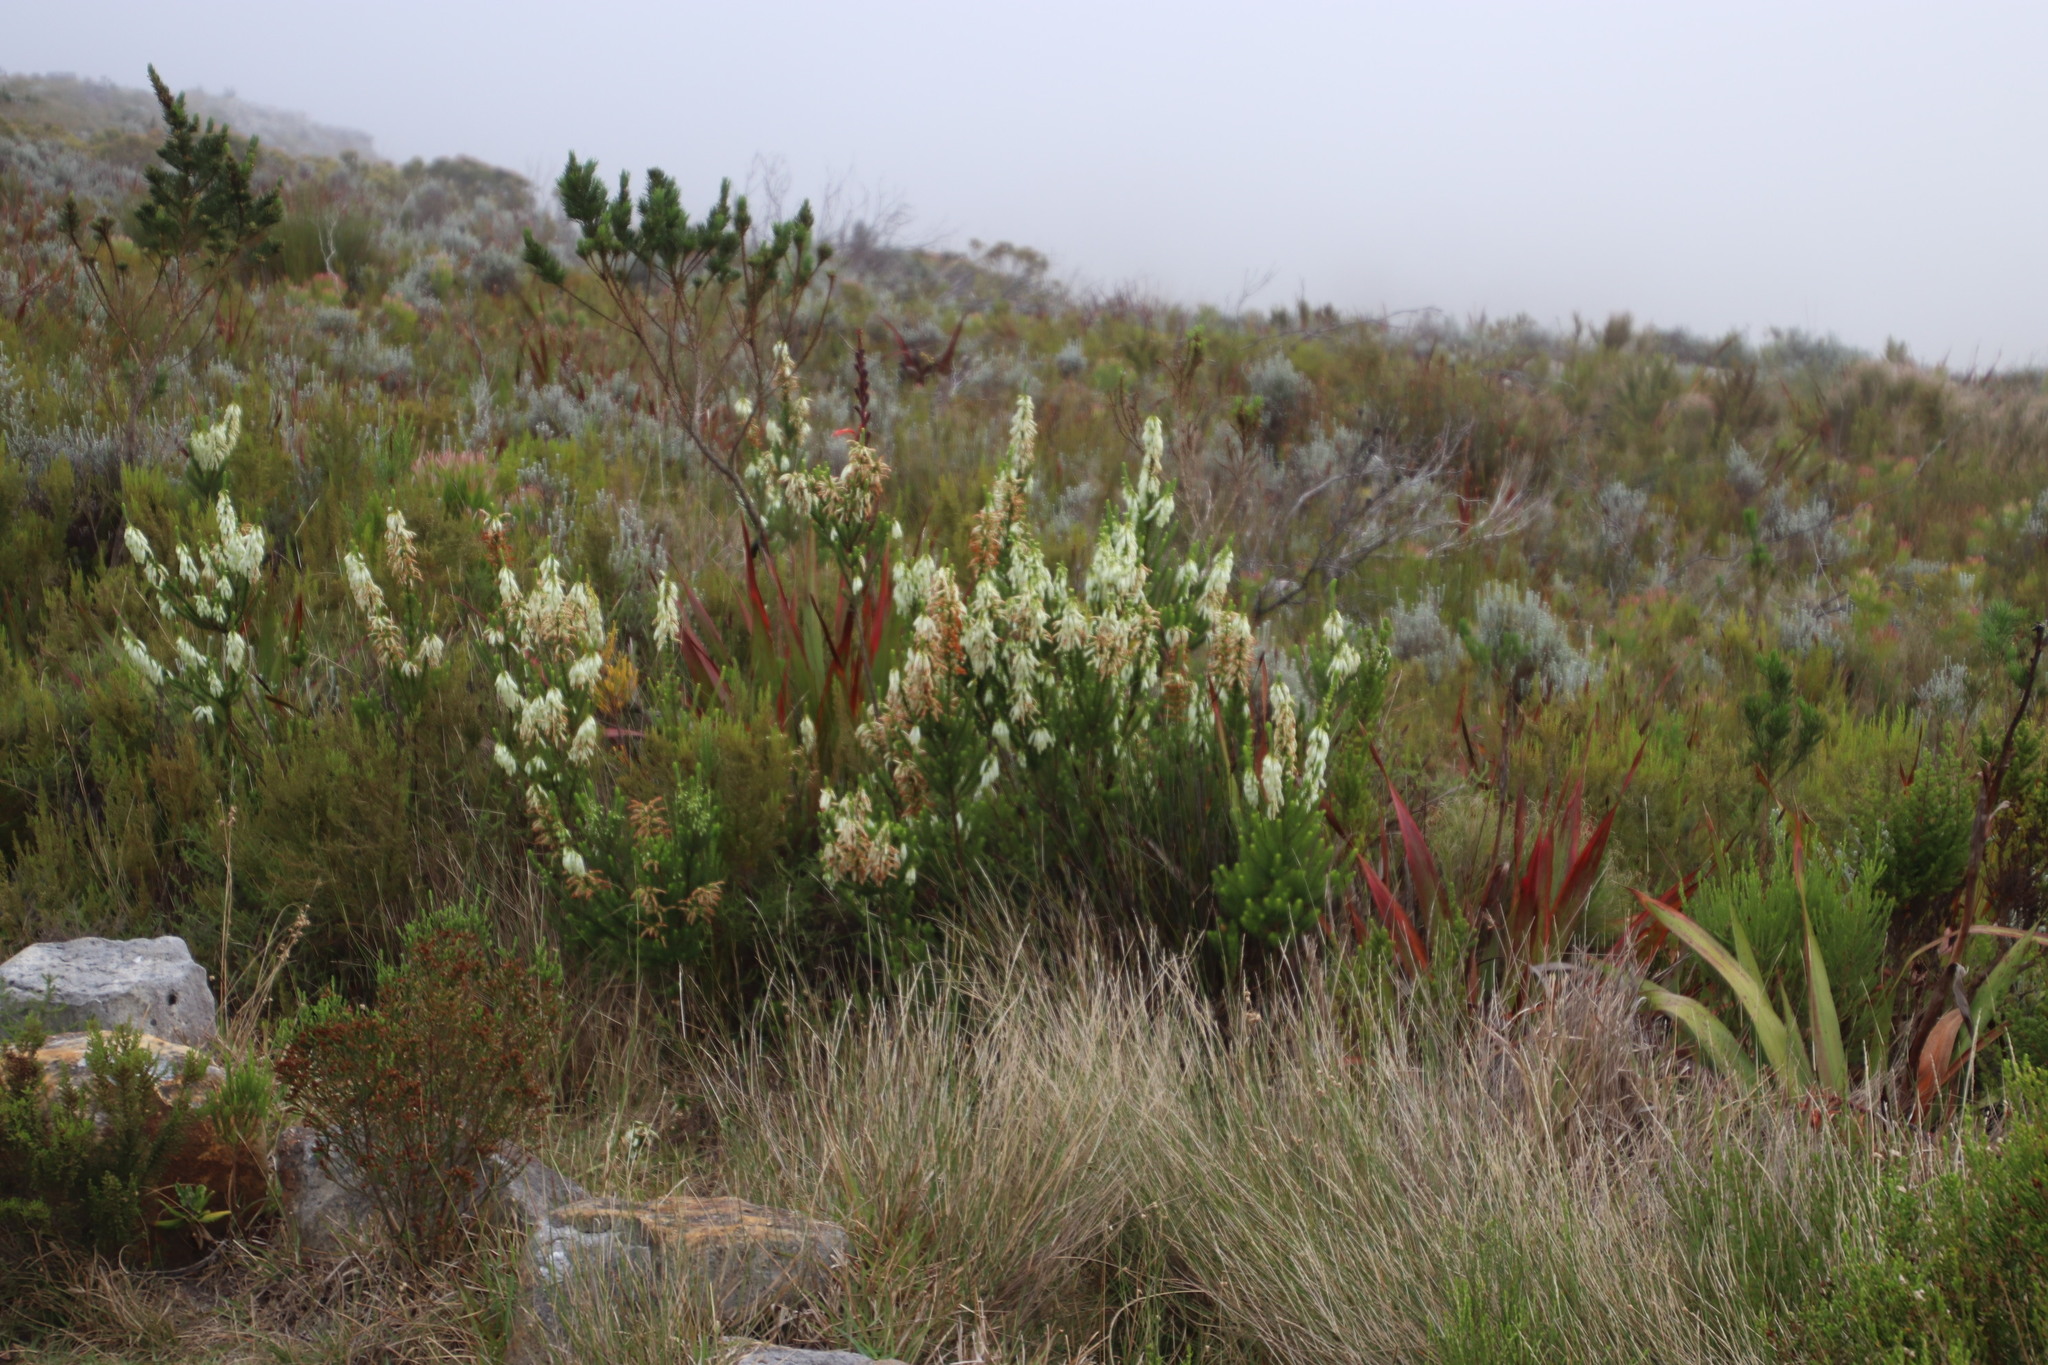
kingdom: Plantae
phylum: Tracheophyta
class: Magnoliopsida
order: Ericales
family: Ericaceae
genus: Erica
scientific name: Erica mammosa
